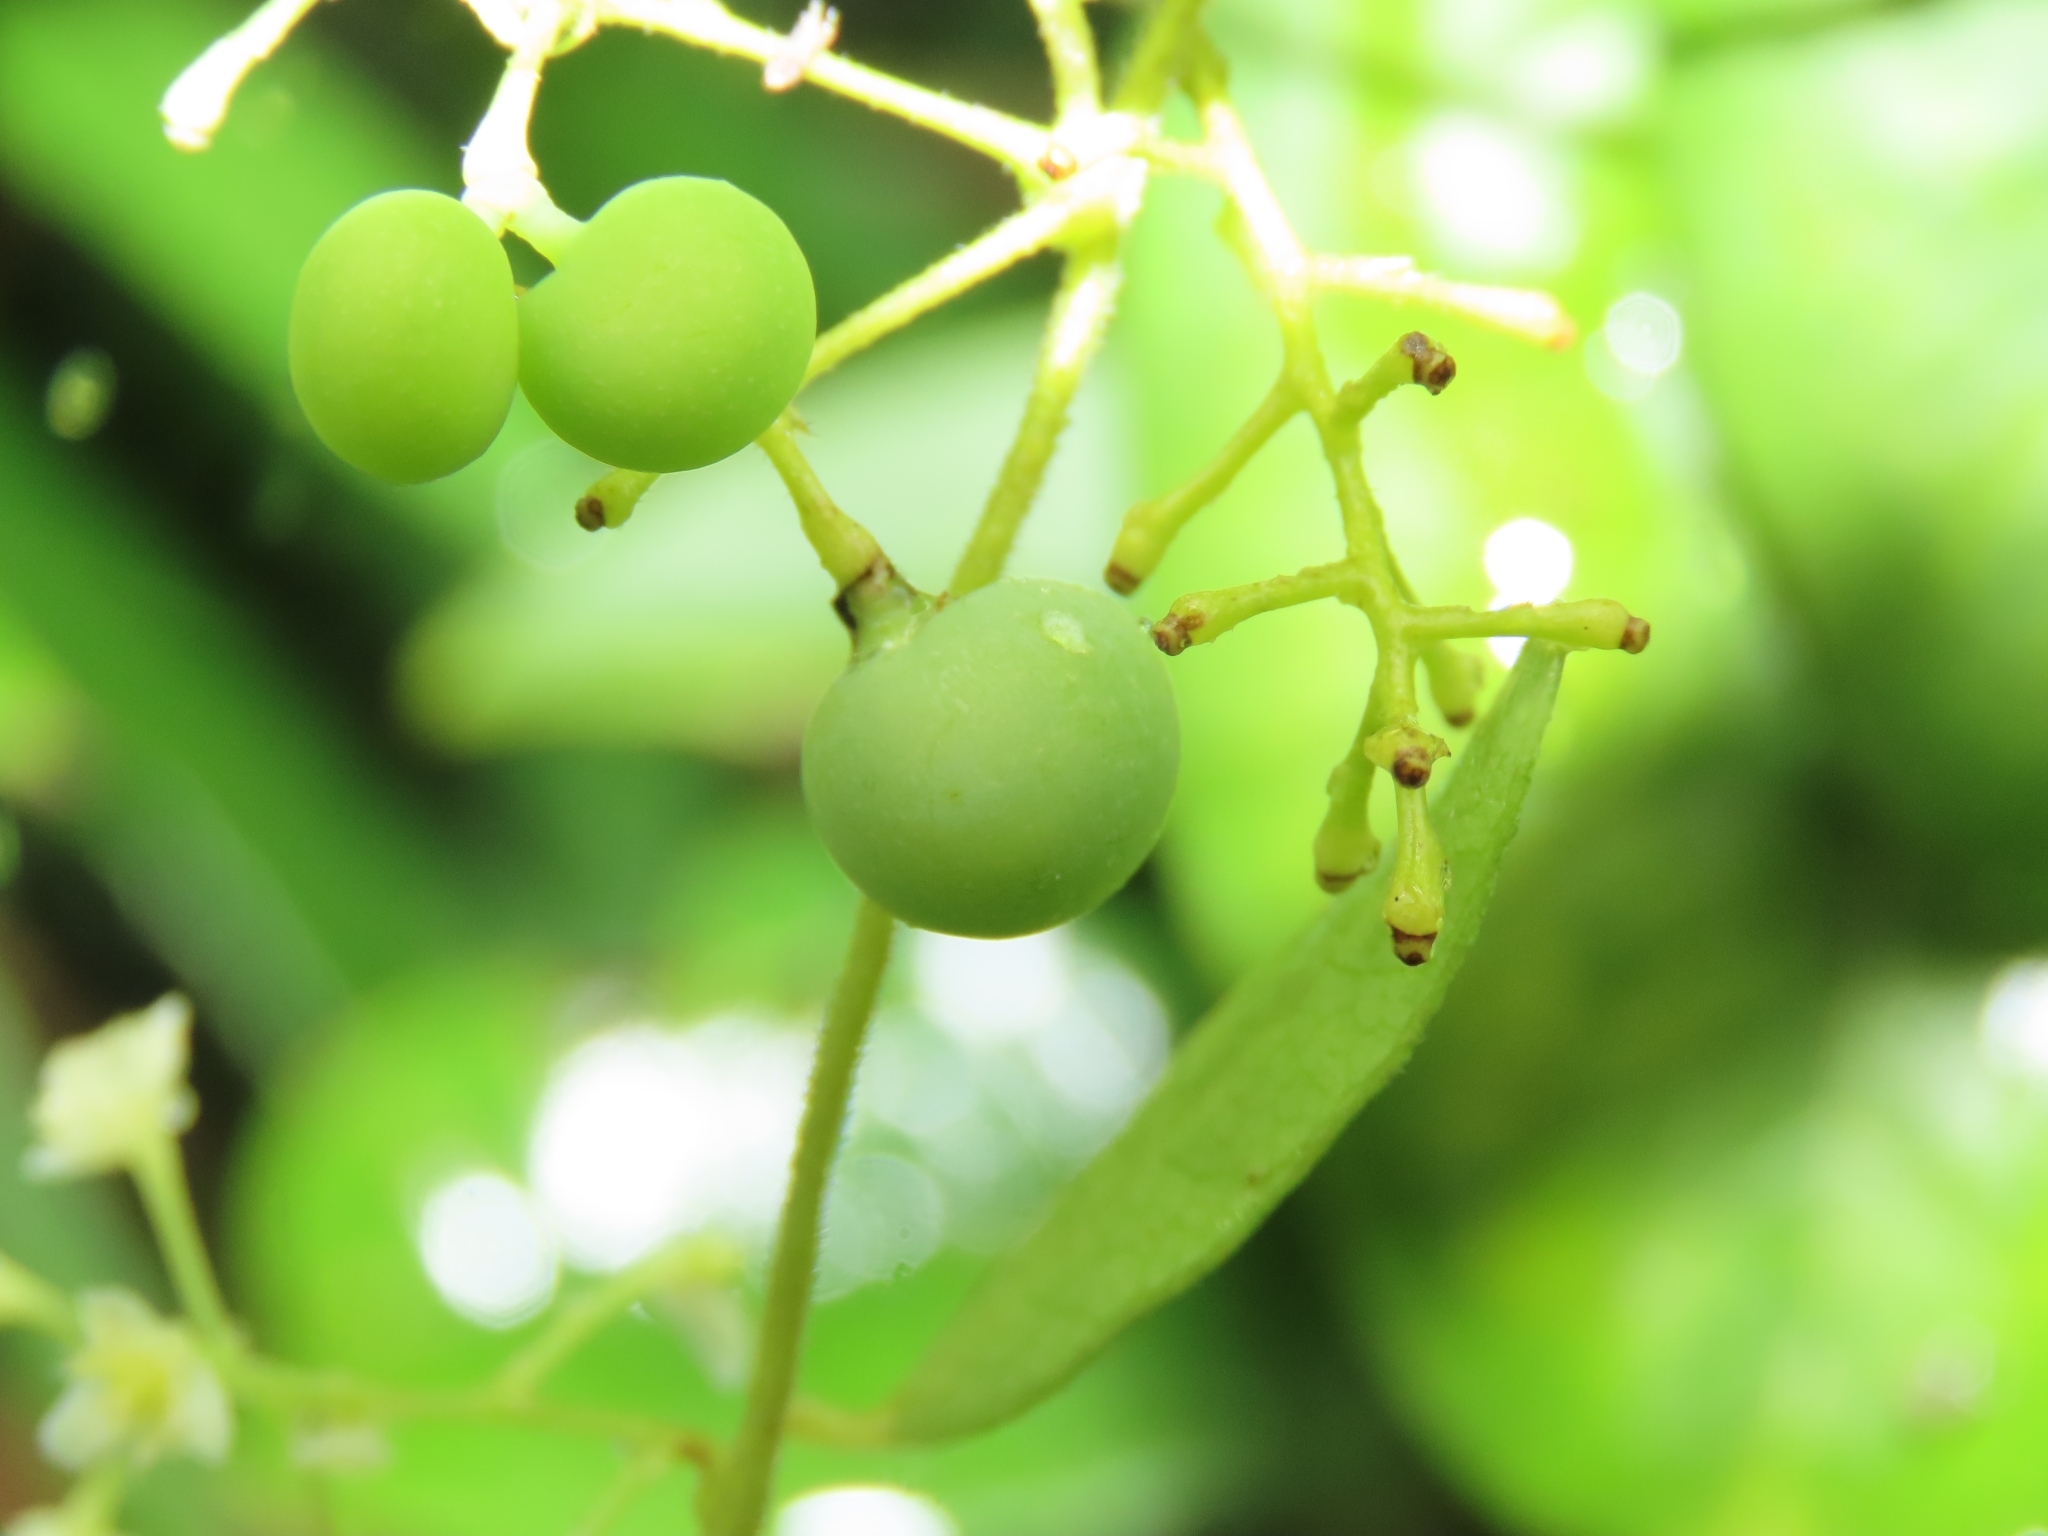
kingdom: Plantae
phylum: Tracheophyta
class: Magnoliopsida
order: Ranunculales
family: Menispermaceae
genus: Cocculus
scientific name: Cocculus orbiculatus
